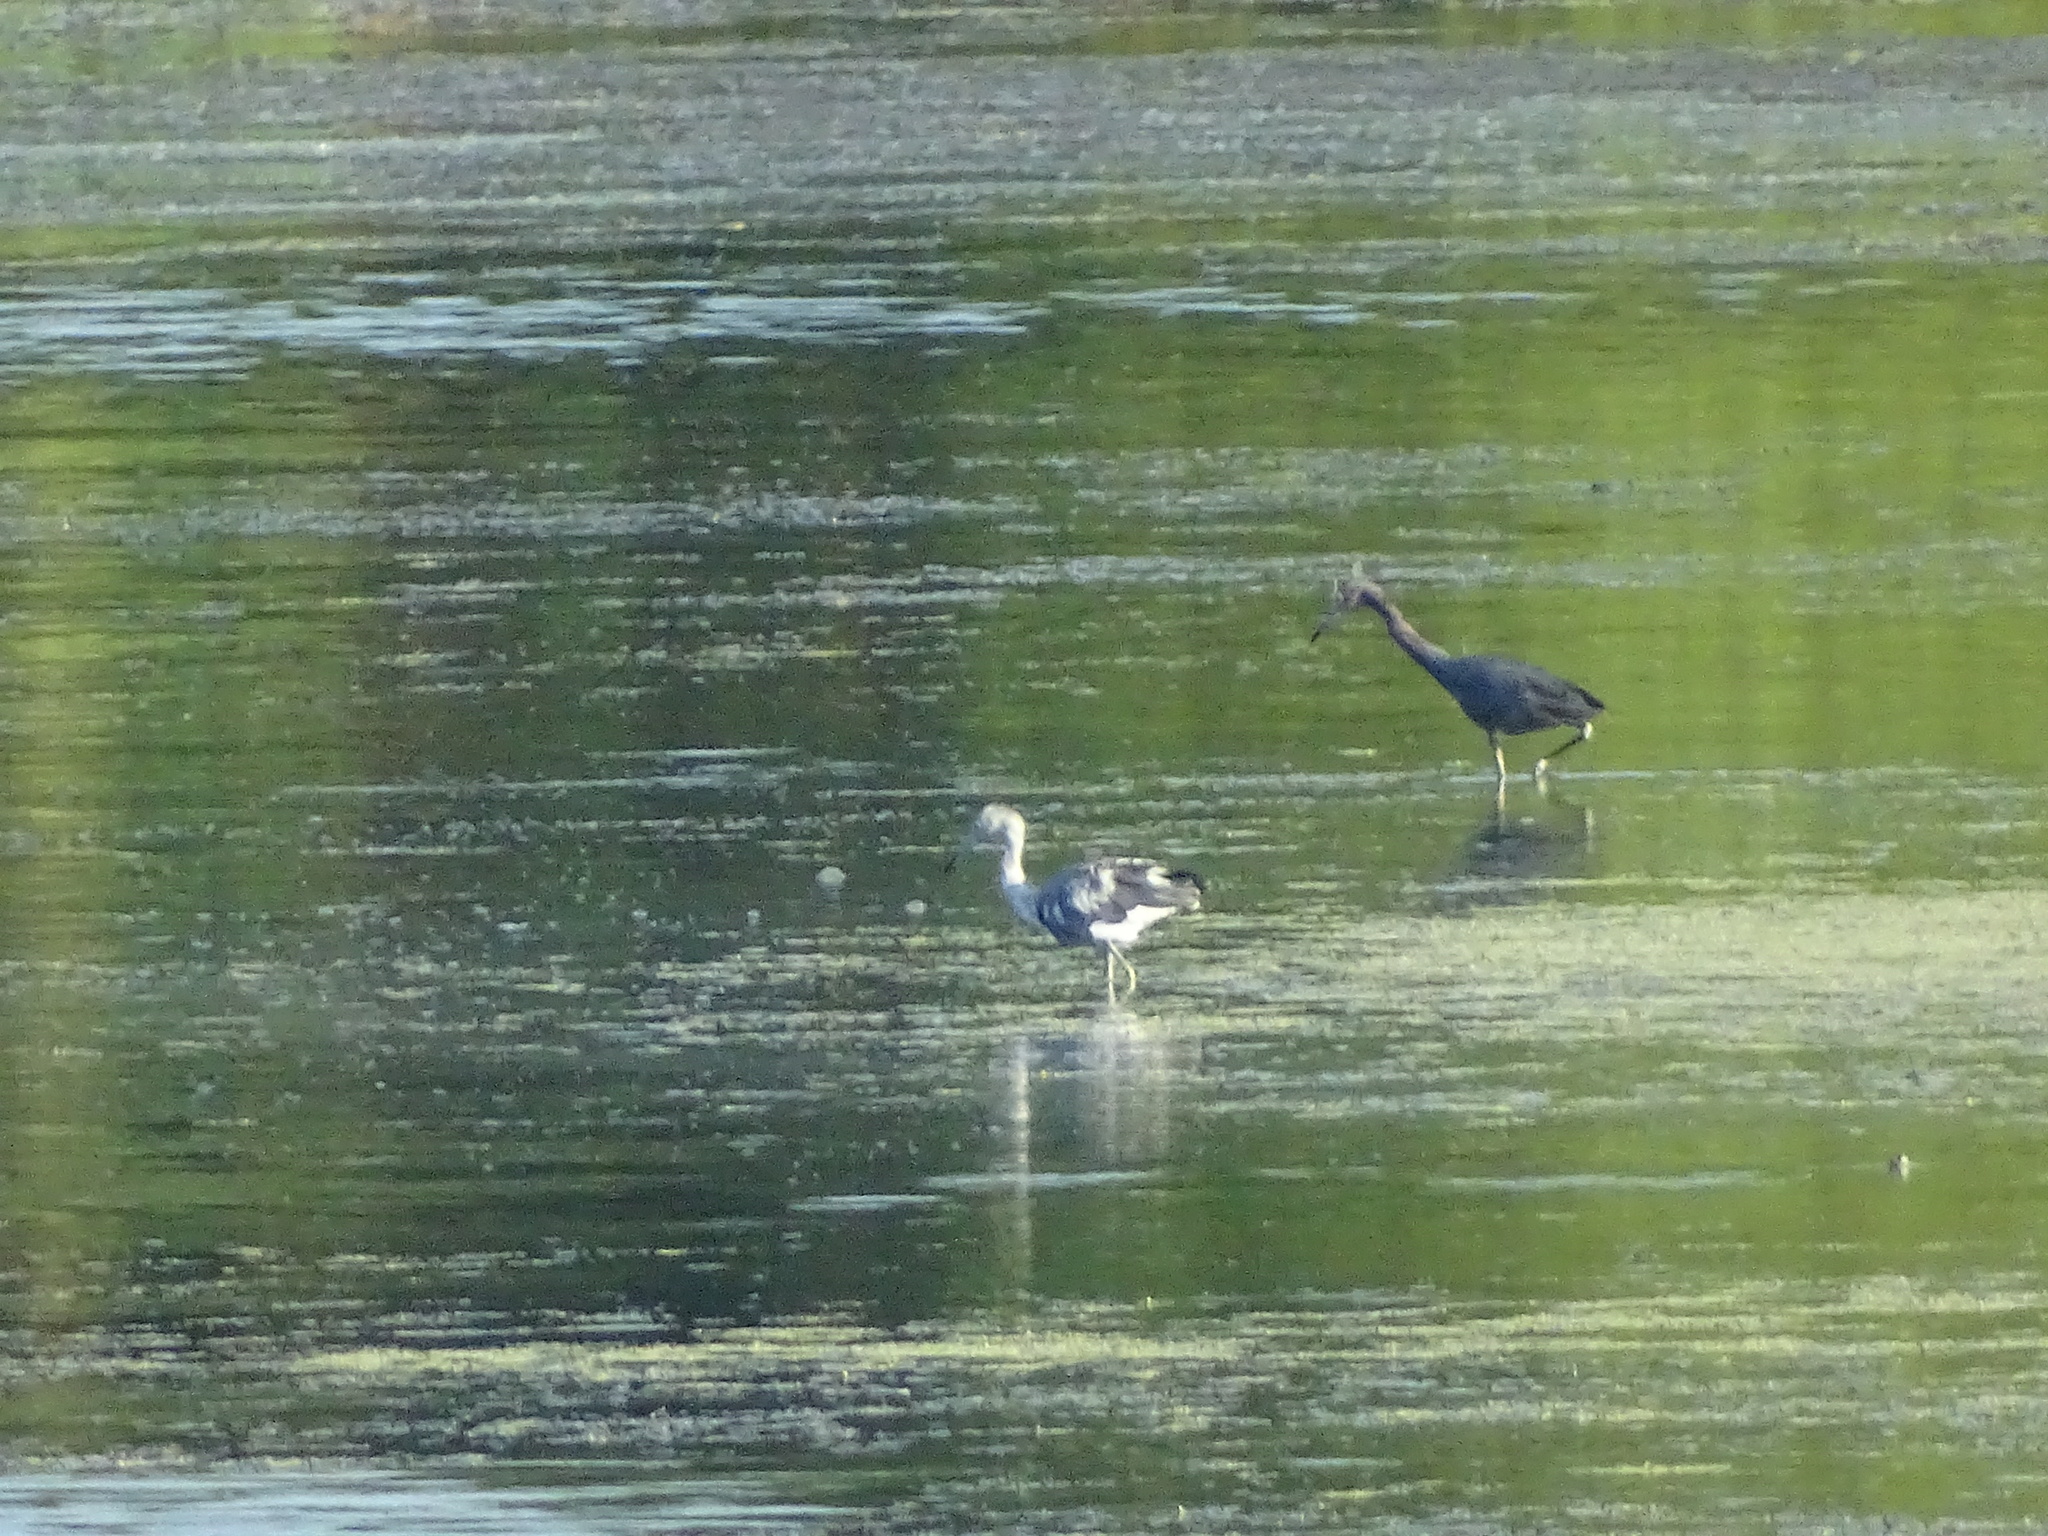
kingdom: Animalia
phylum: Chordata
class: Aves
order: Pelecaniformes
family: Ardeidae
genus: Egretta
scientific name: Egretta caerulea
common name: Little blue heron
